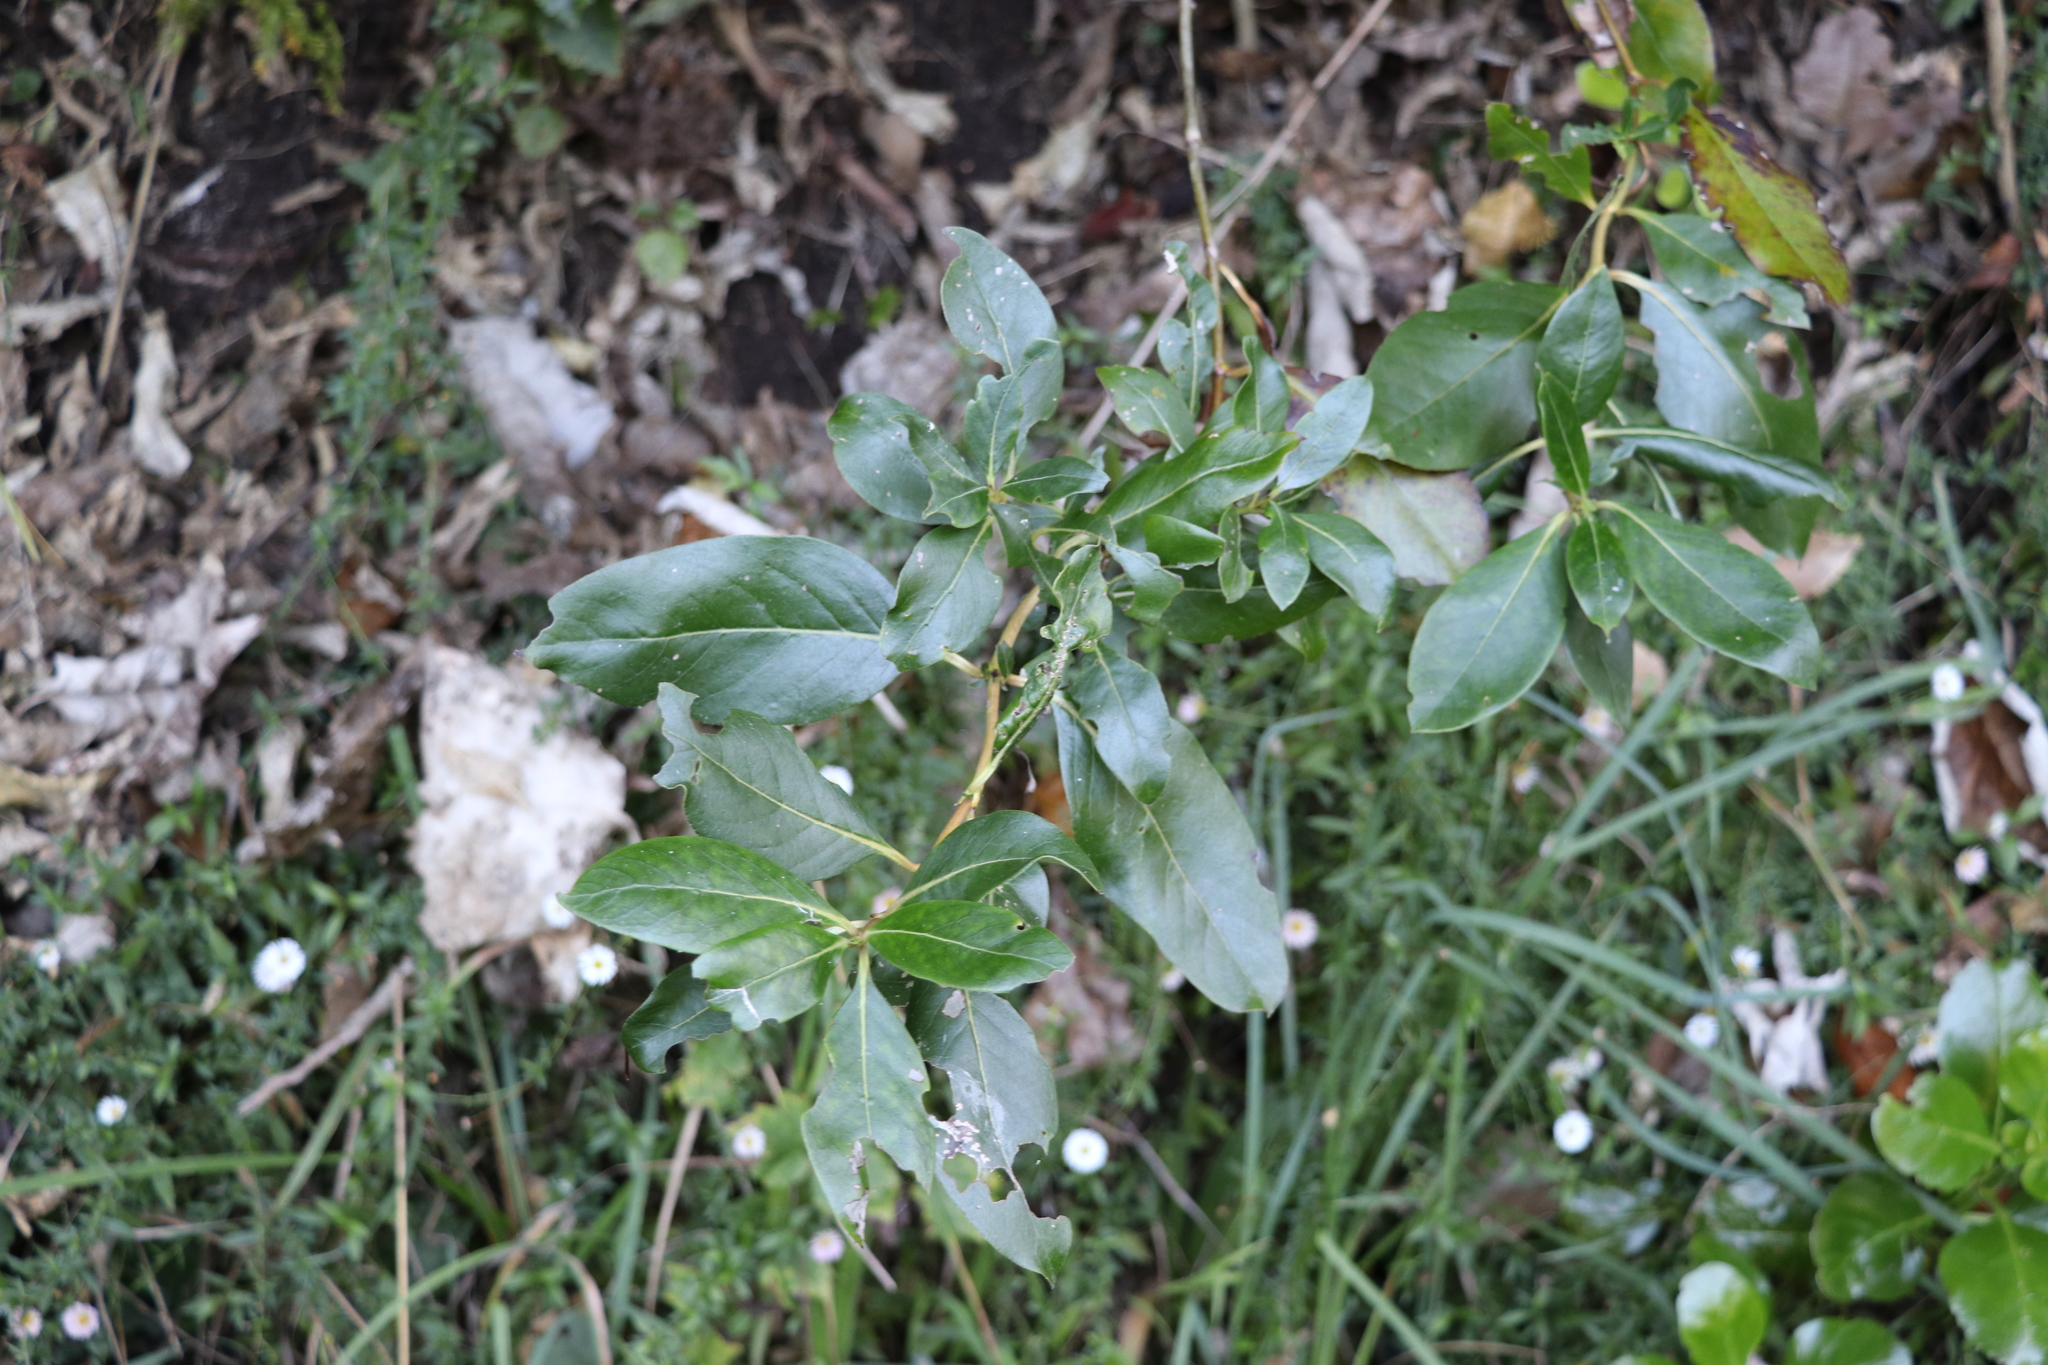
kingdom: Plantae
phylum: Tracheophyta
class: Magnoliopsida
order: Gentianales
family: Rubiaceae
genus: Coprosma
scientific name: Coprosma robusta
